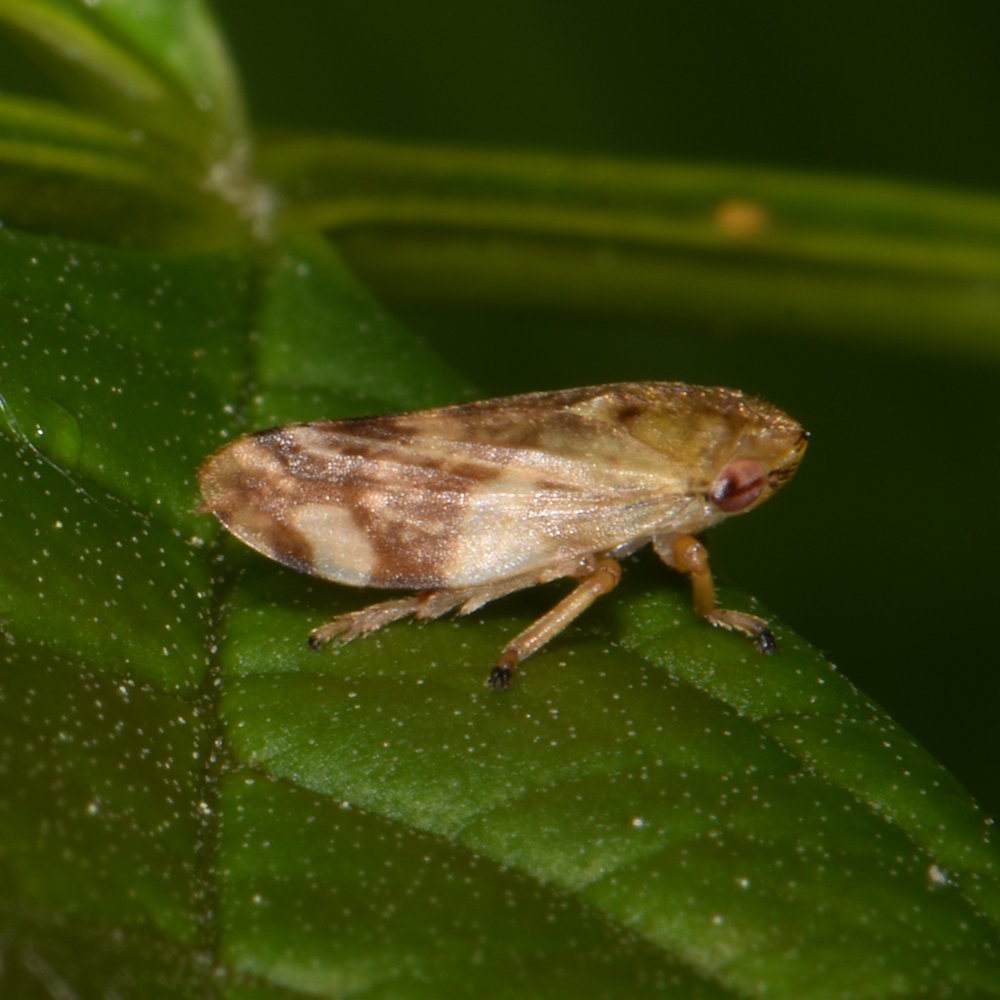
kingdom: Animalia
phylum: Arthropoda
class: Insecta
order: Hemiptera
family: Aphrophoridae
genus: Philaenus
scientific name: Philaenus spumarius
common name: Meadow spittlebug
